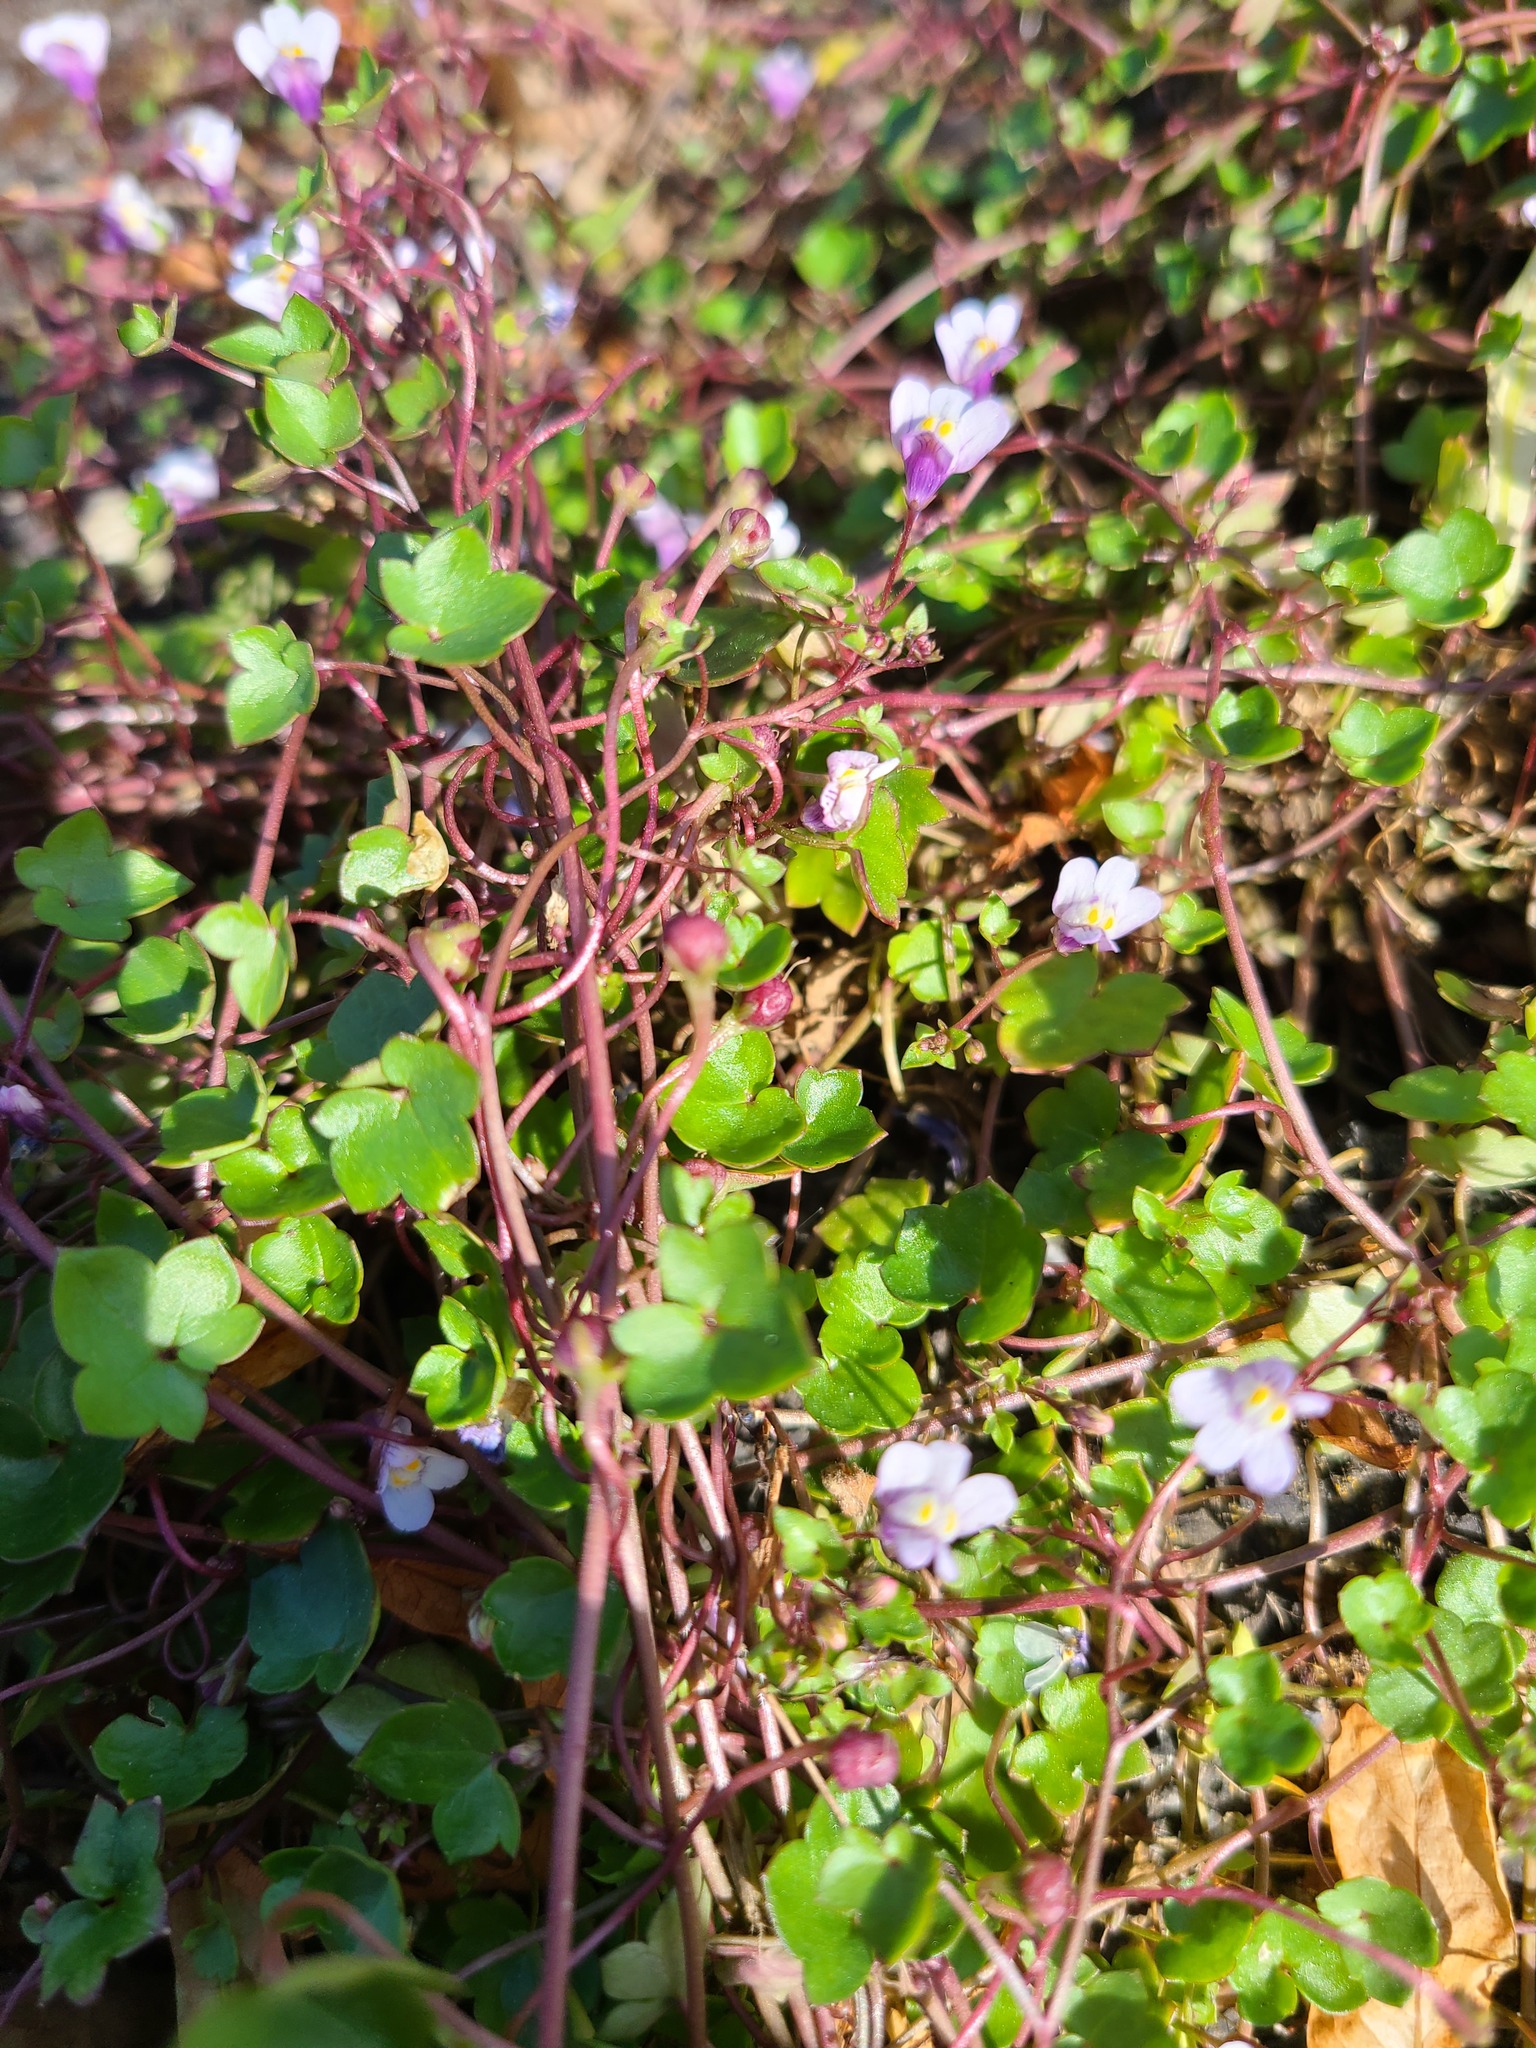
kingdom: Plantae
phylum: Tracheophyta
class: Magnoliopsida
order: Lamiales
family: Plantaginaceae
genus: Cymbalaria
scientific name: Cymbalaria muralis
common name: Ivy-leaved toadflax
